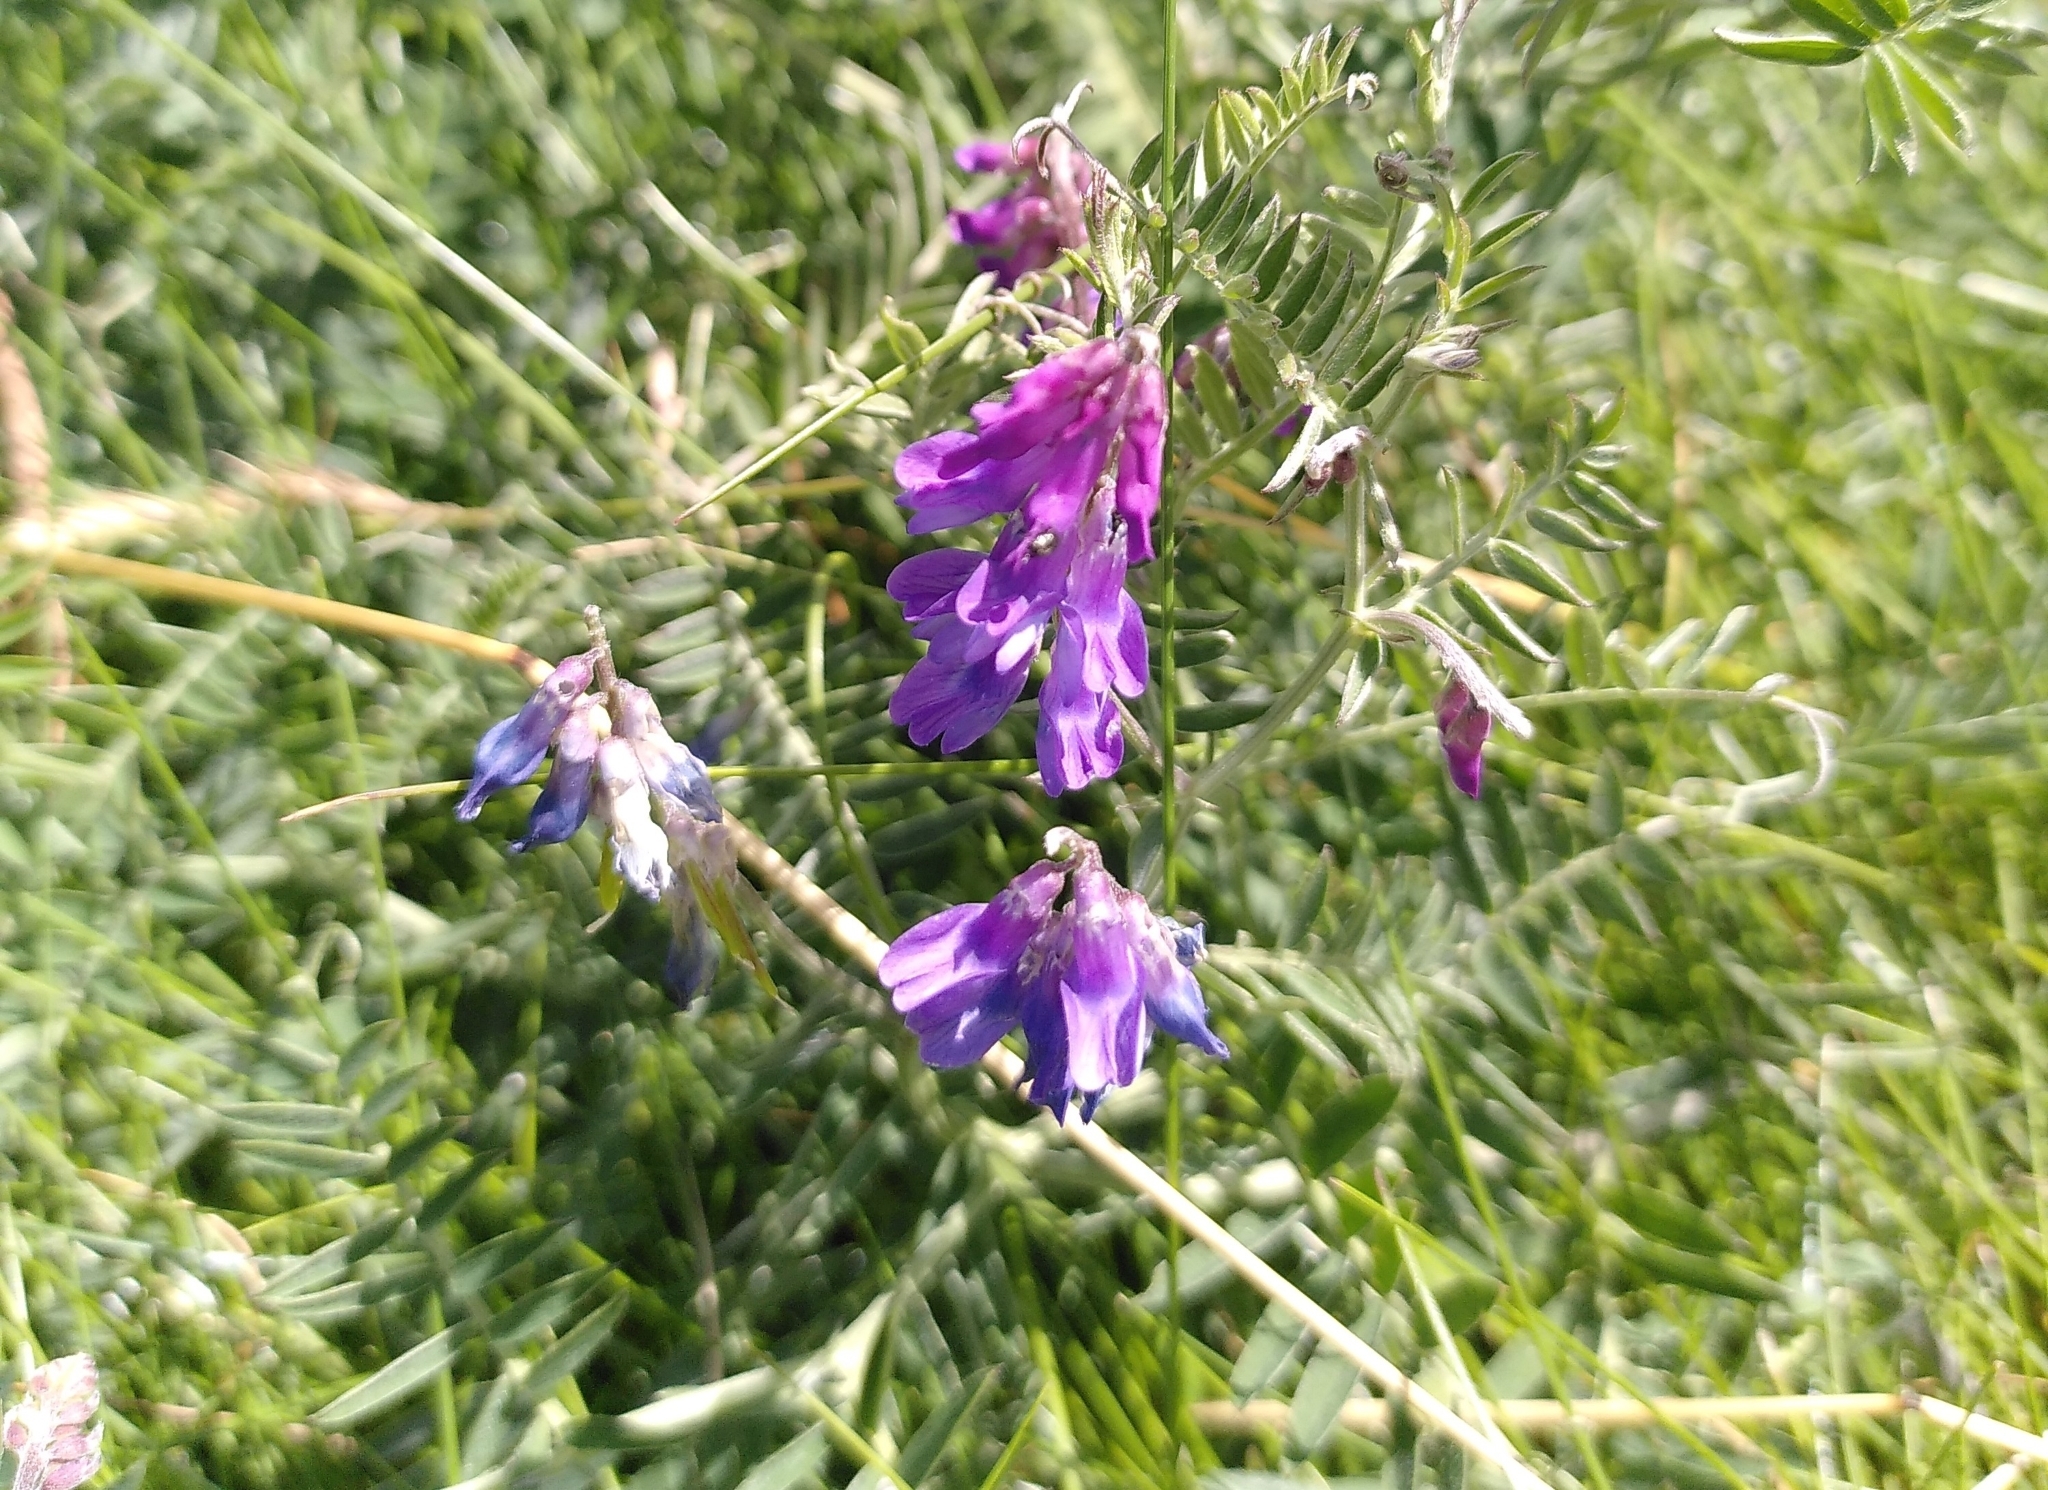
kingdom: Plantae
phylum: Tracheophyta
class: Magnoliopsida
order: Fabales
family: Fabaceae
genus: Vicia
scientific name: Vicia cracca
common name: Bird vetch
